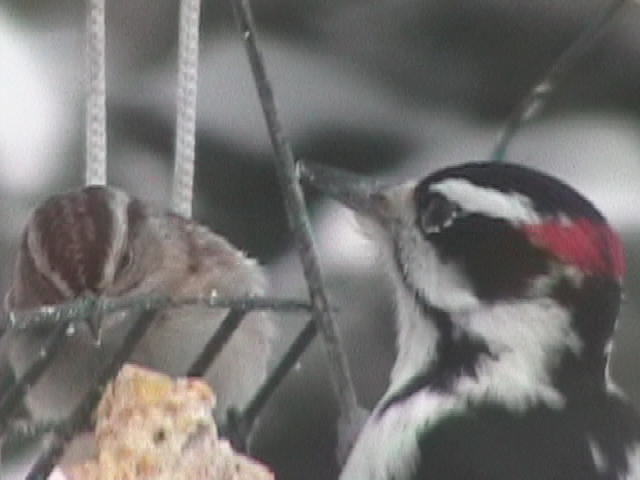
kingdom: Animalia
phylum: Chordata
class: Aves
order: Piciformes
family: Picidae
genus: Leuconotopicus
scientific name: Leuconotopicus villosus
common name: Hairy woodpecker
